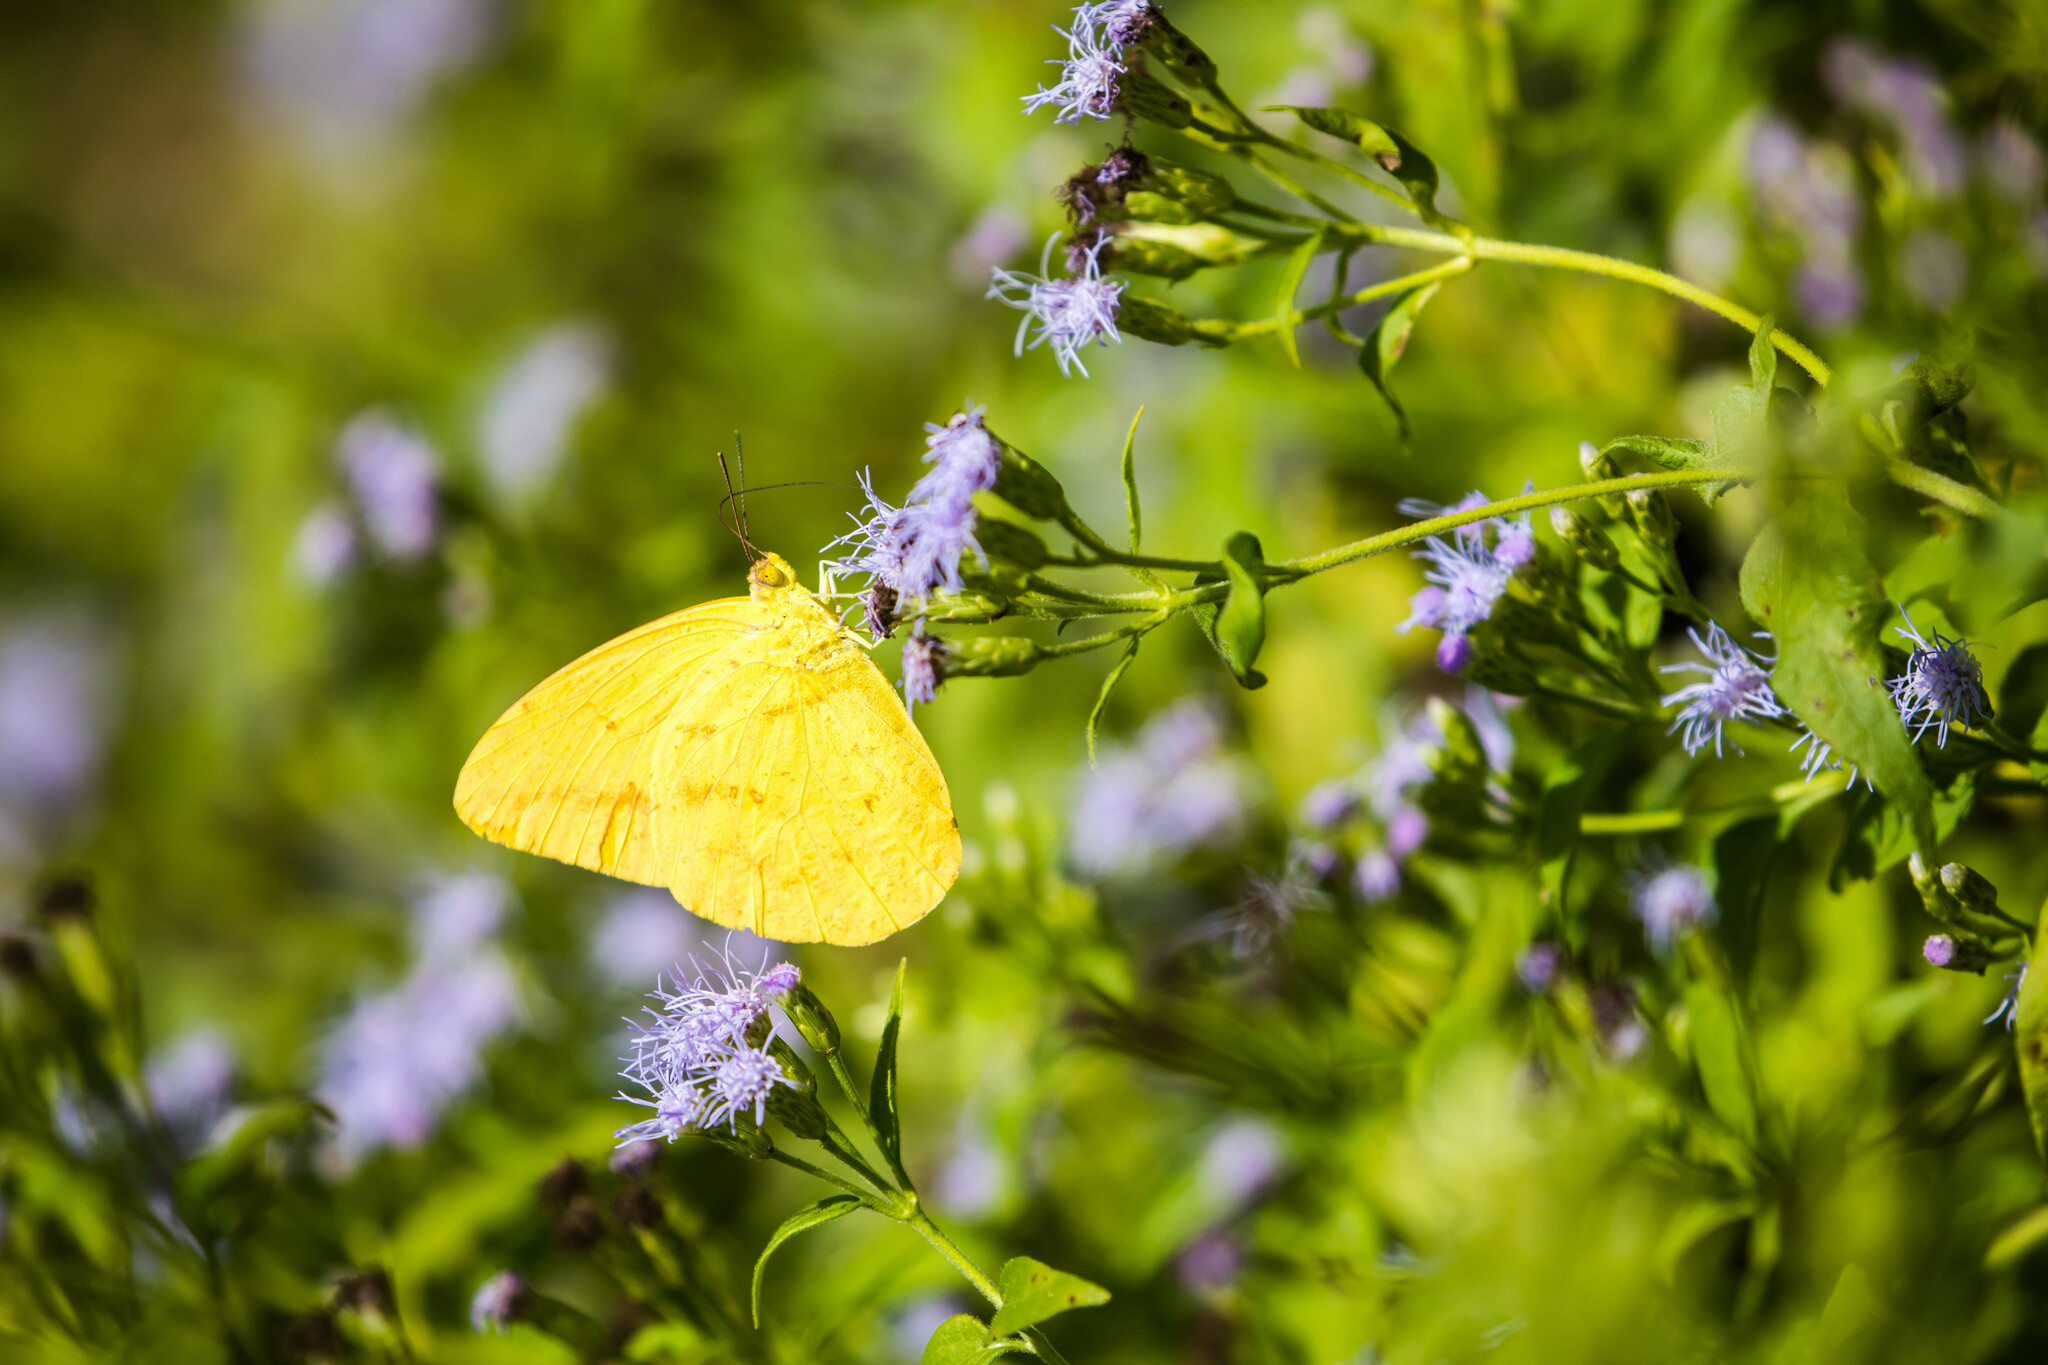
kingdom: Animalia
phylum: Arthropoda
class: Insecta
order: Lepidoptera
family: Pieridae
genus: Phoebis
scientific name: Phoebis agarithe
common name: Large orange sulphur
